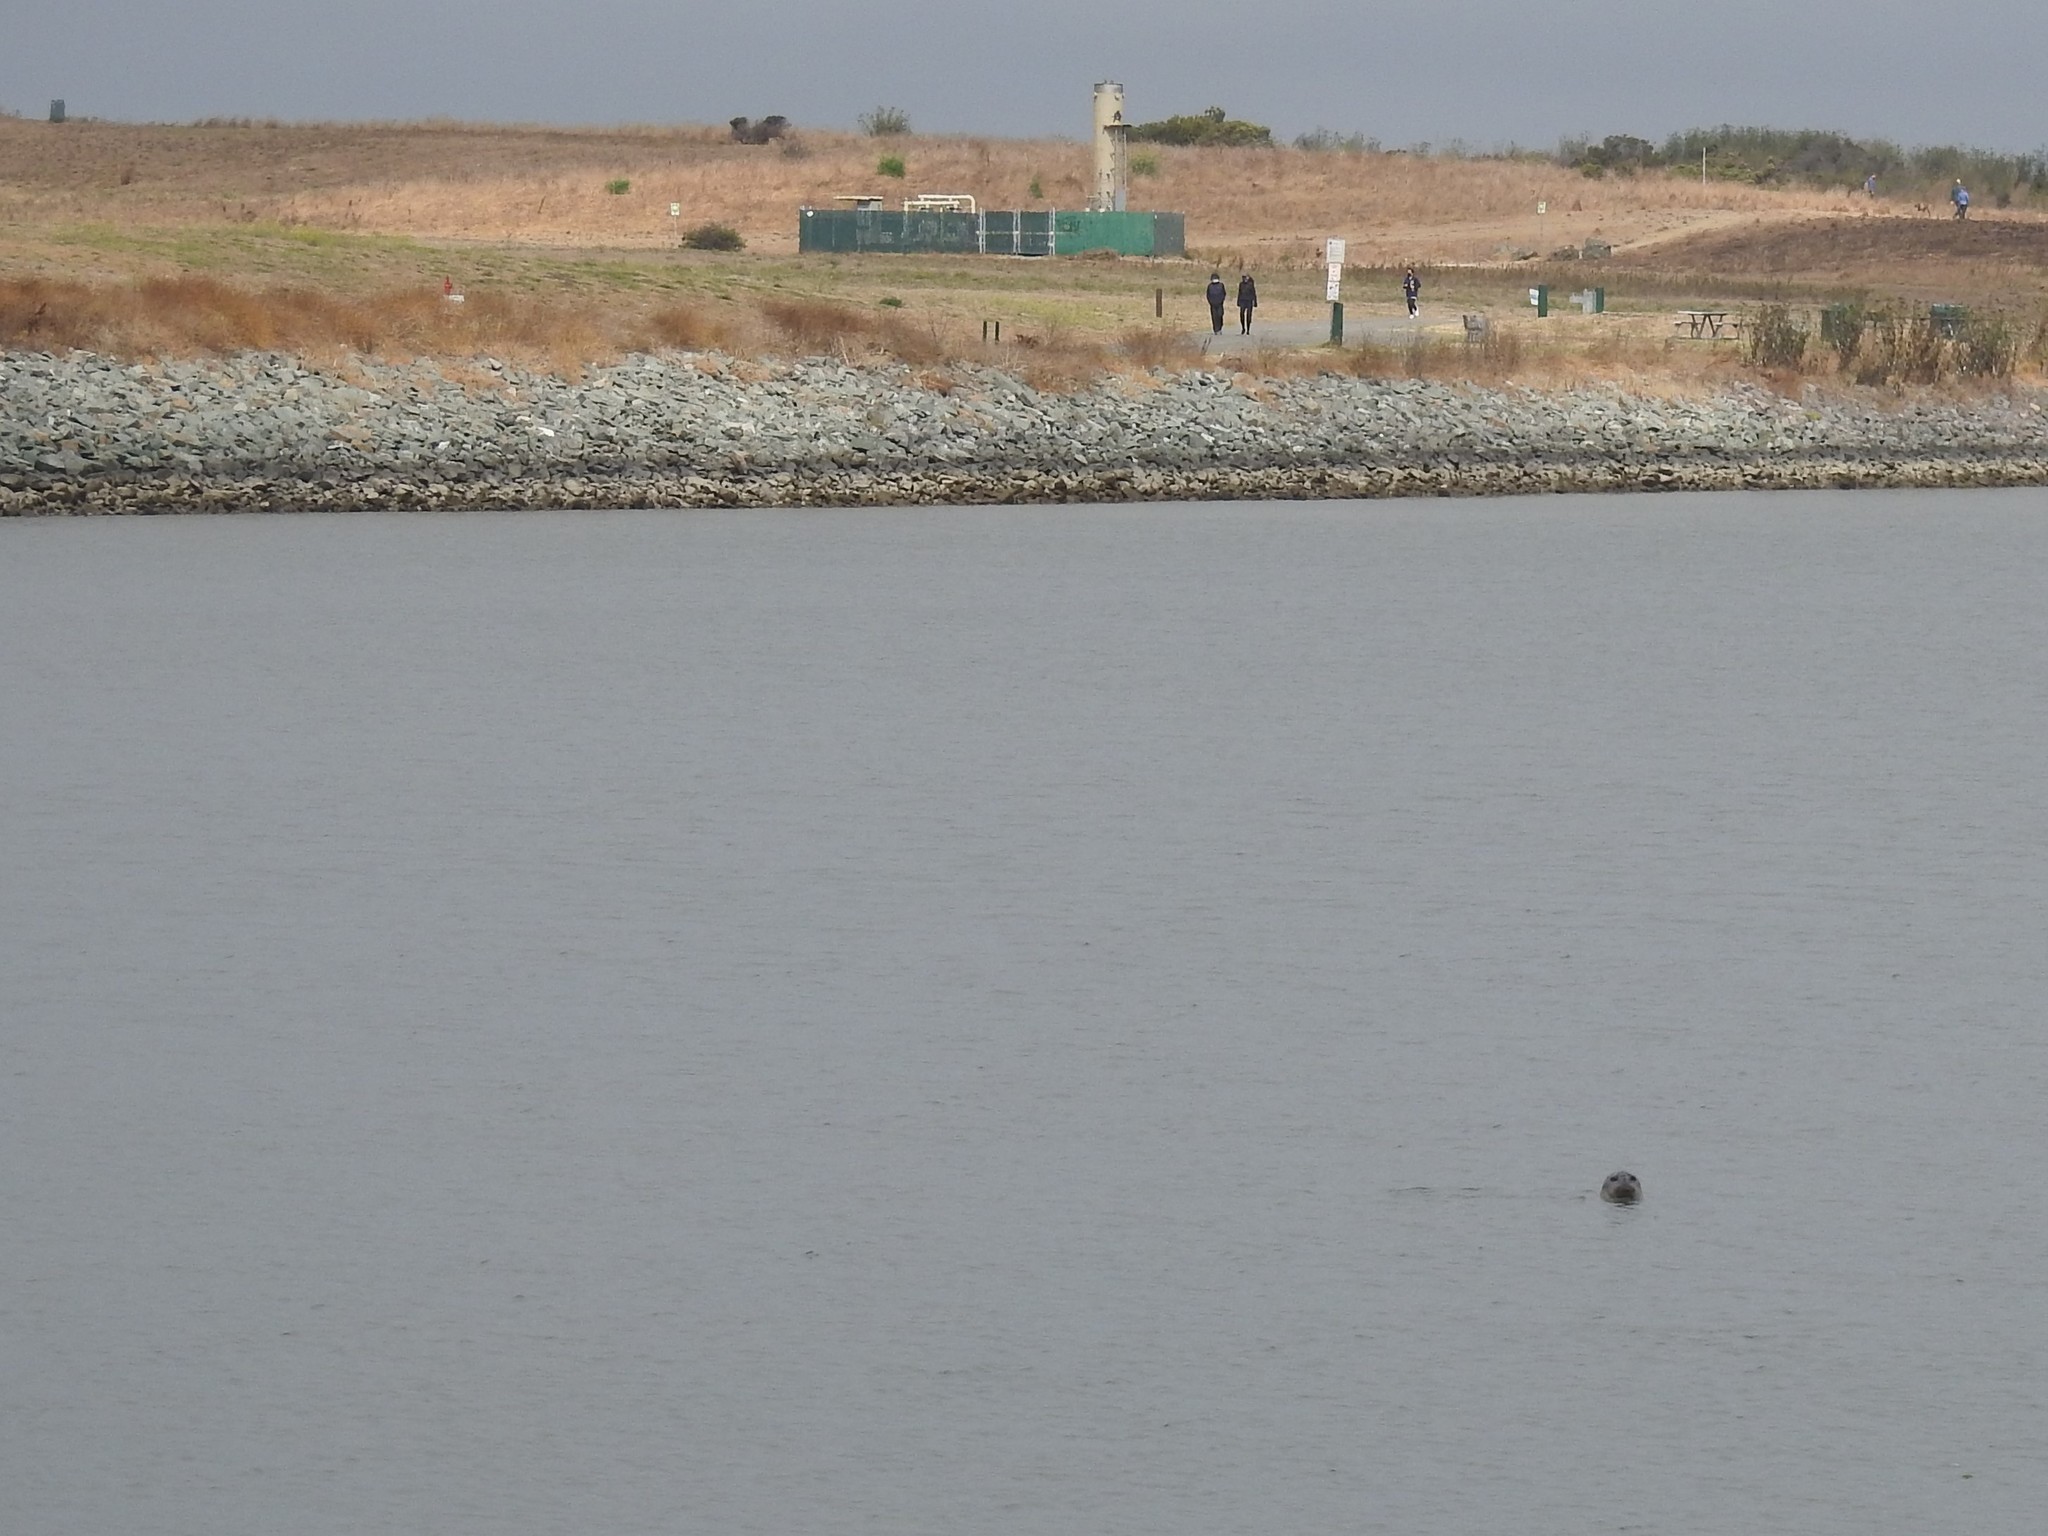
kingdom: Animalia
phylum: Chordata
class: Mammalia
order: Carnivora
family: Phocidae
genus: Phoca
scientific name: Phoca vitulina
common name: Harbor seal
